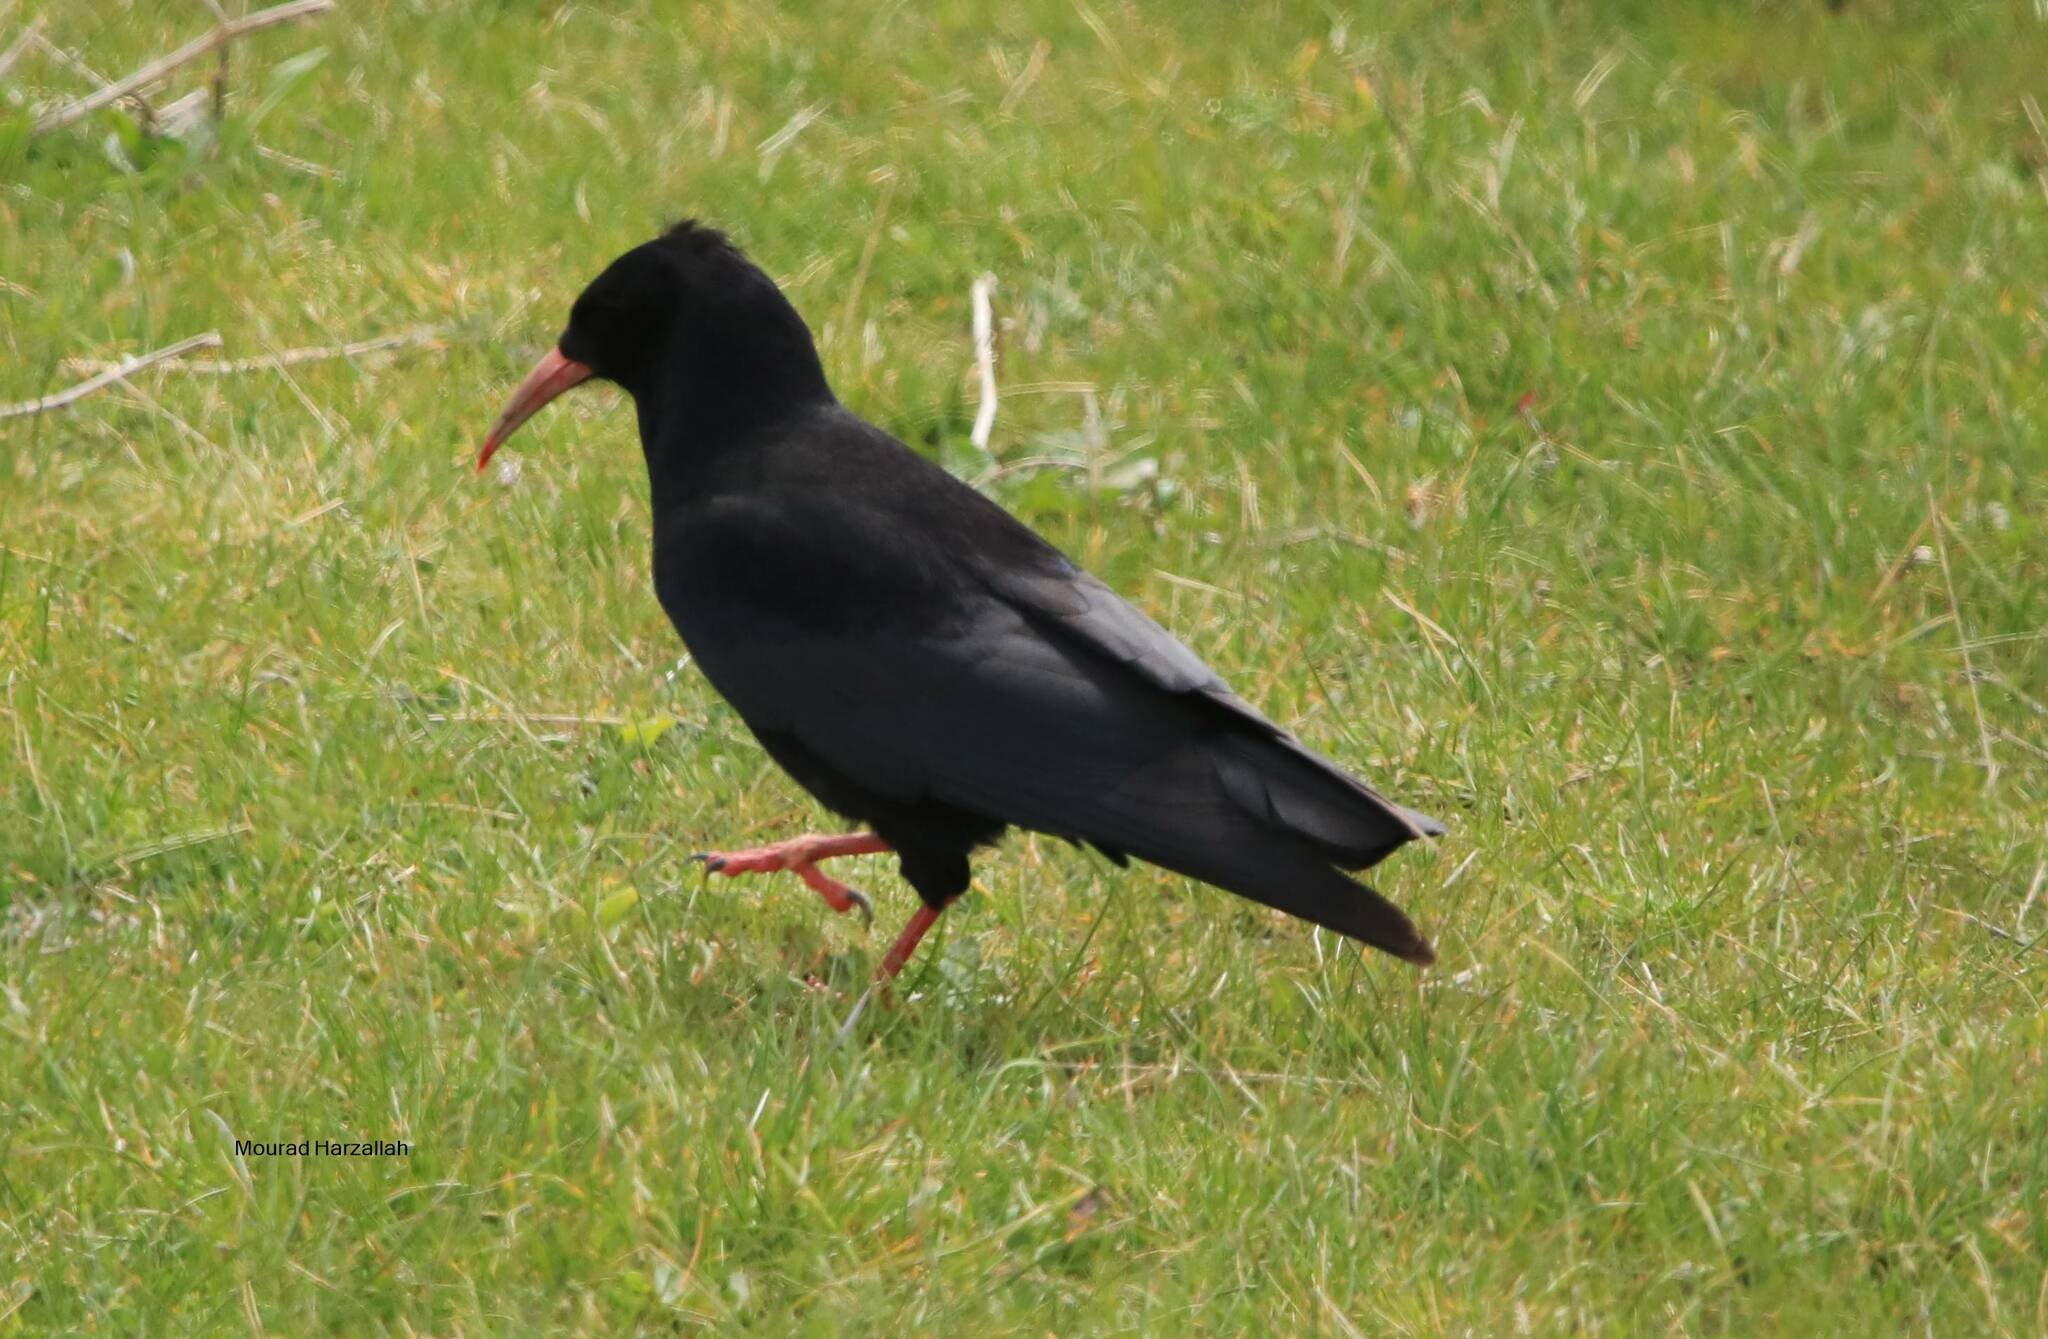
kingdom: Animalia
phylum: Chordata
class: Aves
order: Passeriformes
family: Corvidae
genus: Pyrrhocorax
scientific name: Pyrrhocorax pyrrhocorax
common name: Red-billed chough
